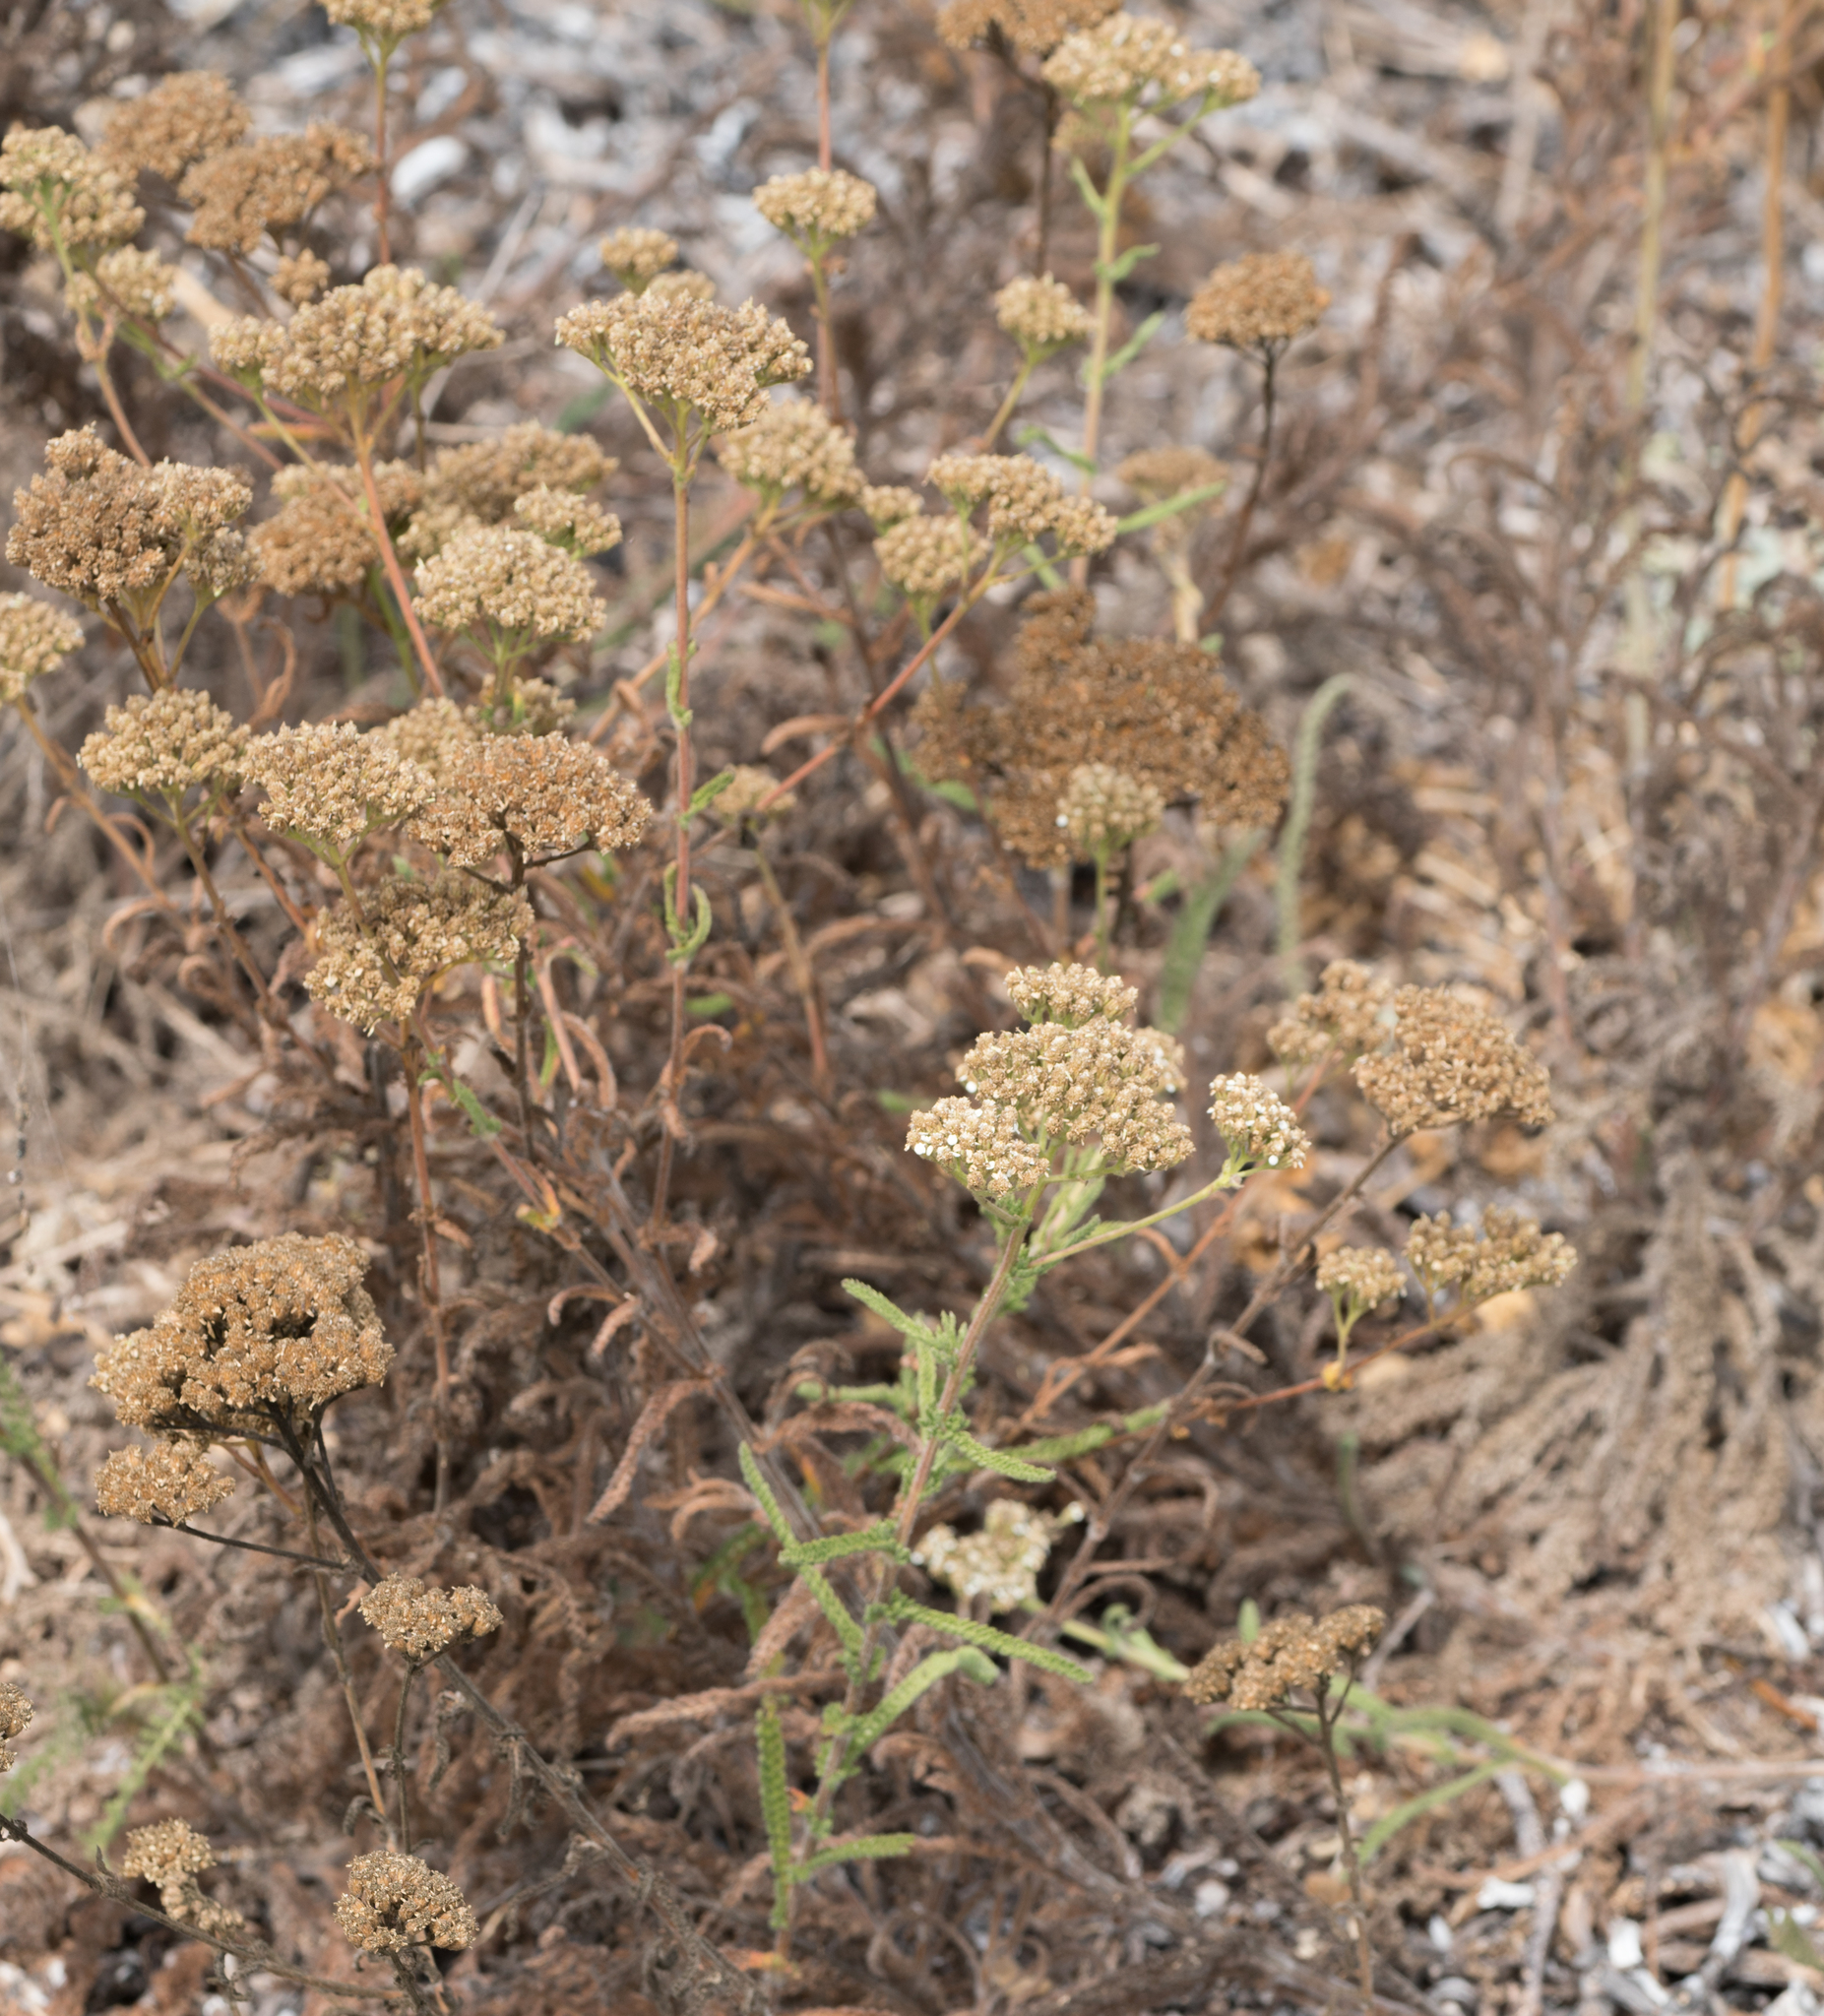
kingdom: Plantae
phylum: Tracheophyta
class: Magnoliopsida
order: Asterales
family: Asteraceae
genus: Achillea
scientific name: Achillea millefolium
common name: Yarrow
